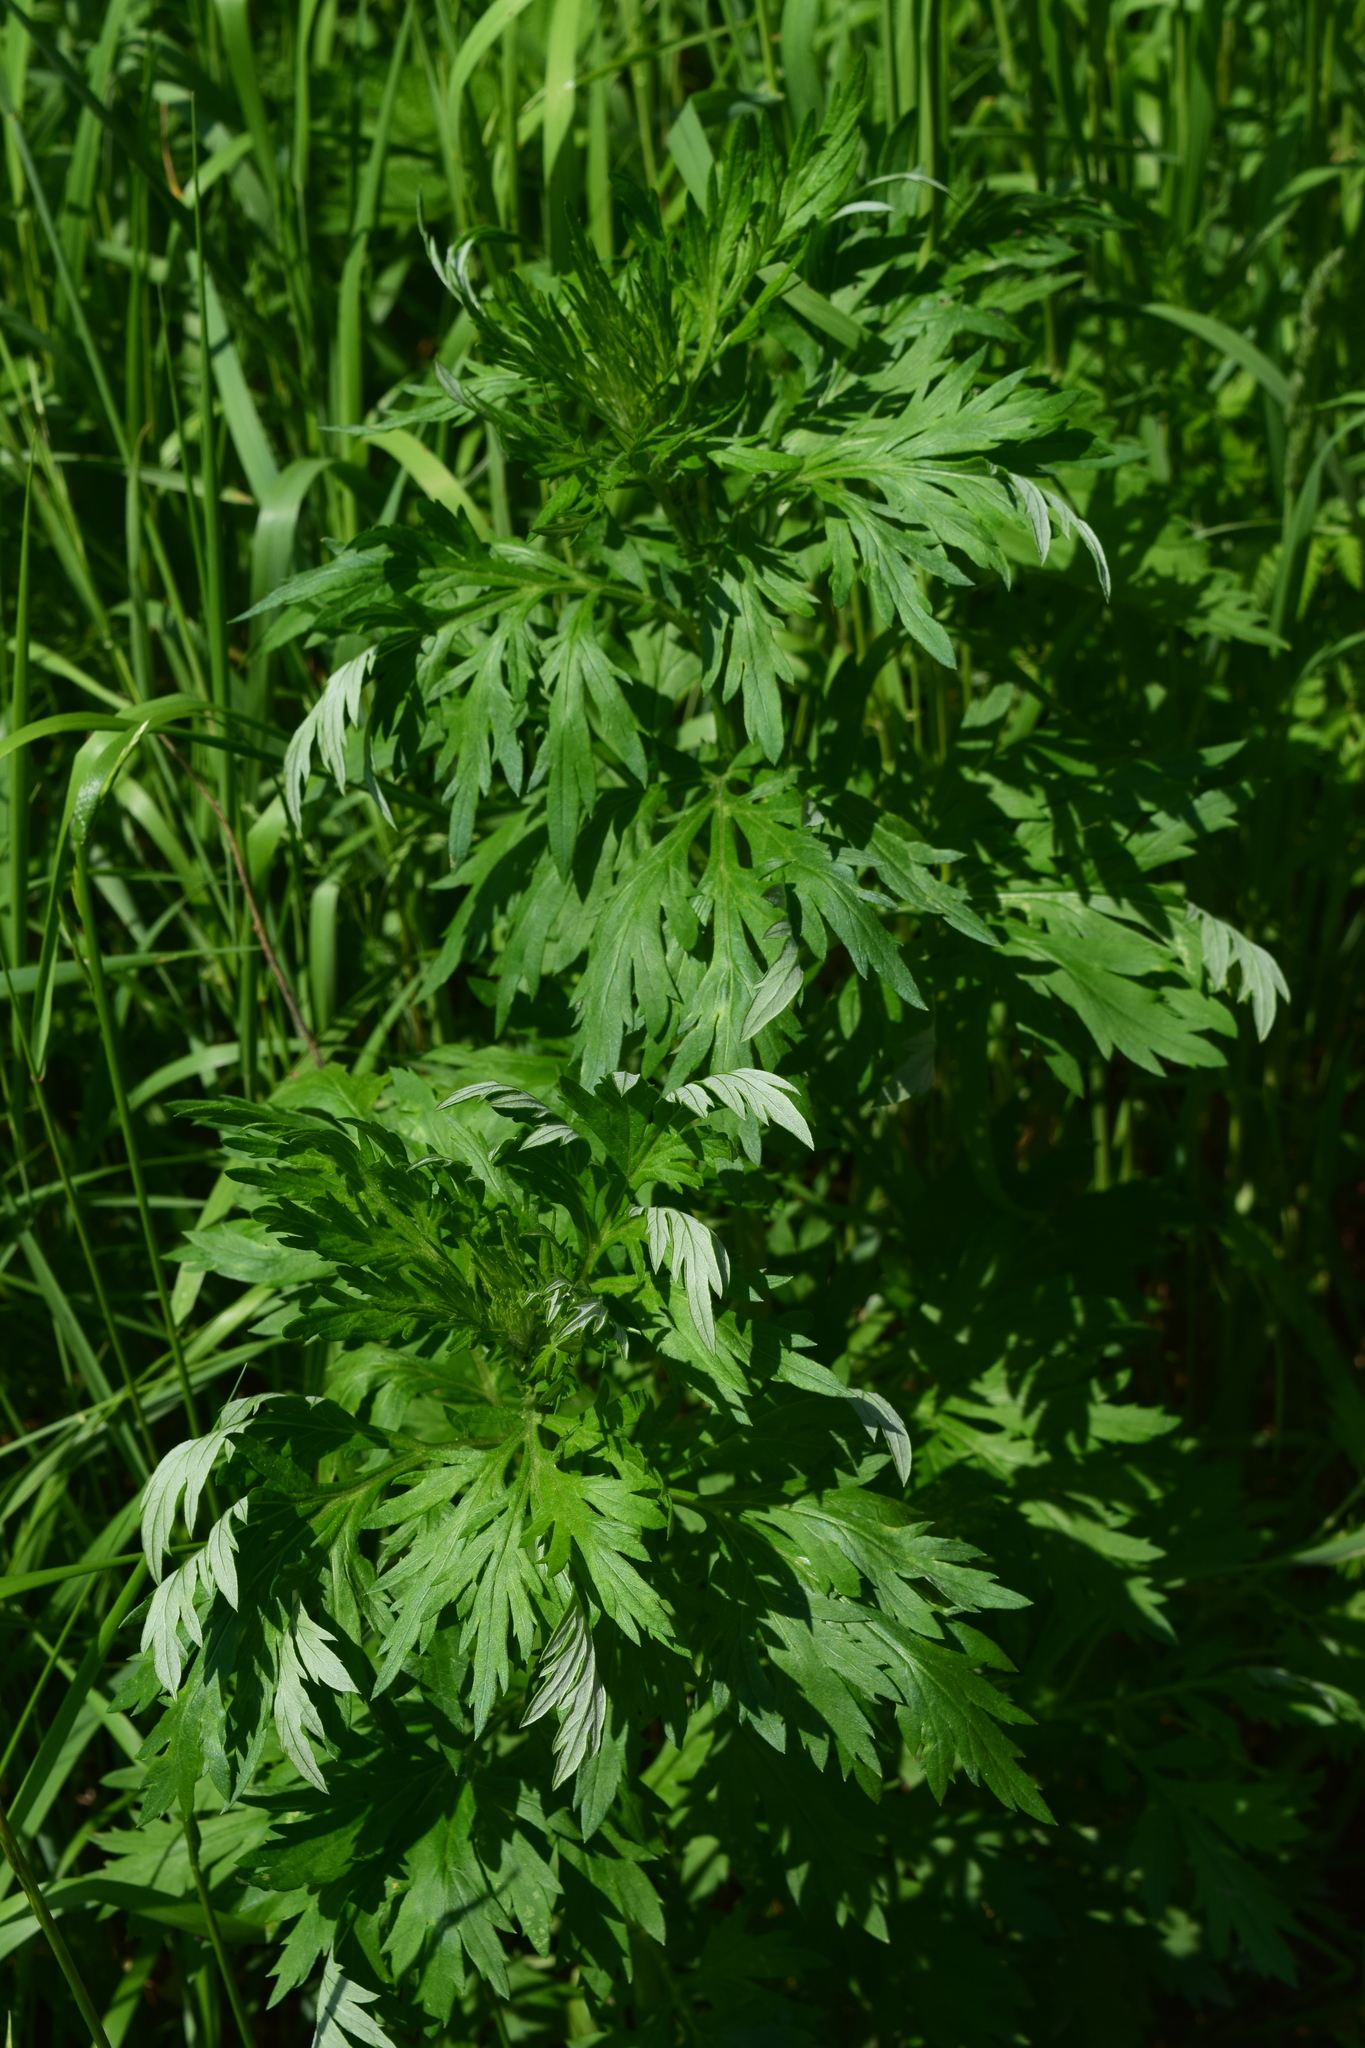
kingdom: Plantae
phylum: Tracheophyta
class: Magnoliopsida
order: Asterales
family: Asteraceae
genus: Artemisia
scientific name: Artemisia vulgaris
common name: Mugwort
